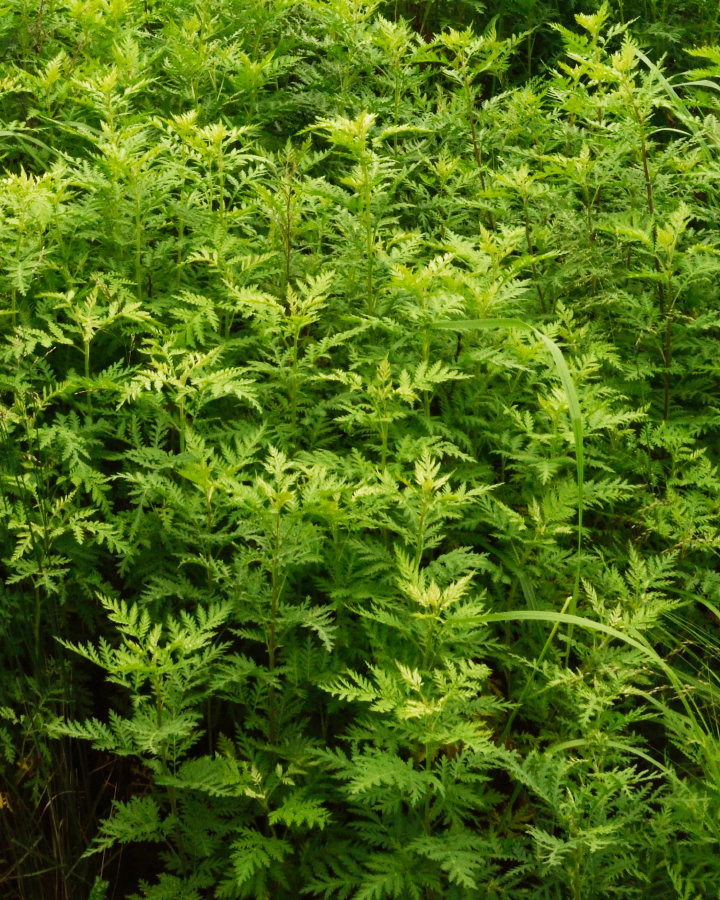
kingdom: Plantae
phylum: Tracheophyta
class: Magnoliopsida
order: Asterales
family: Asteraceae
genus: Artemisia
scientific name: Artemisia gmelinii
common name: Gmelin's wormwood
